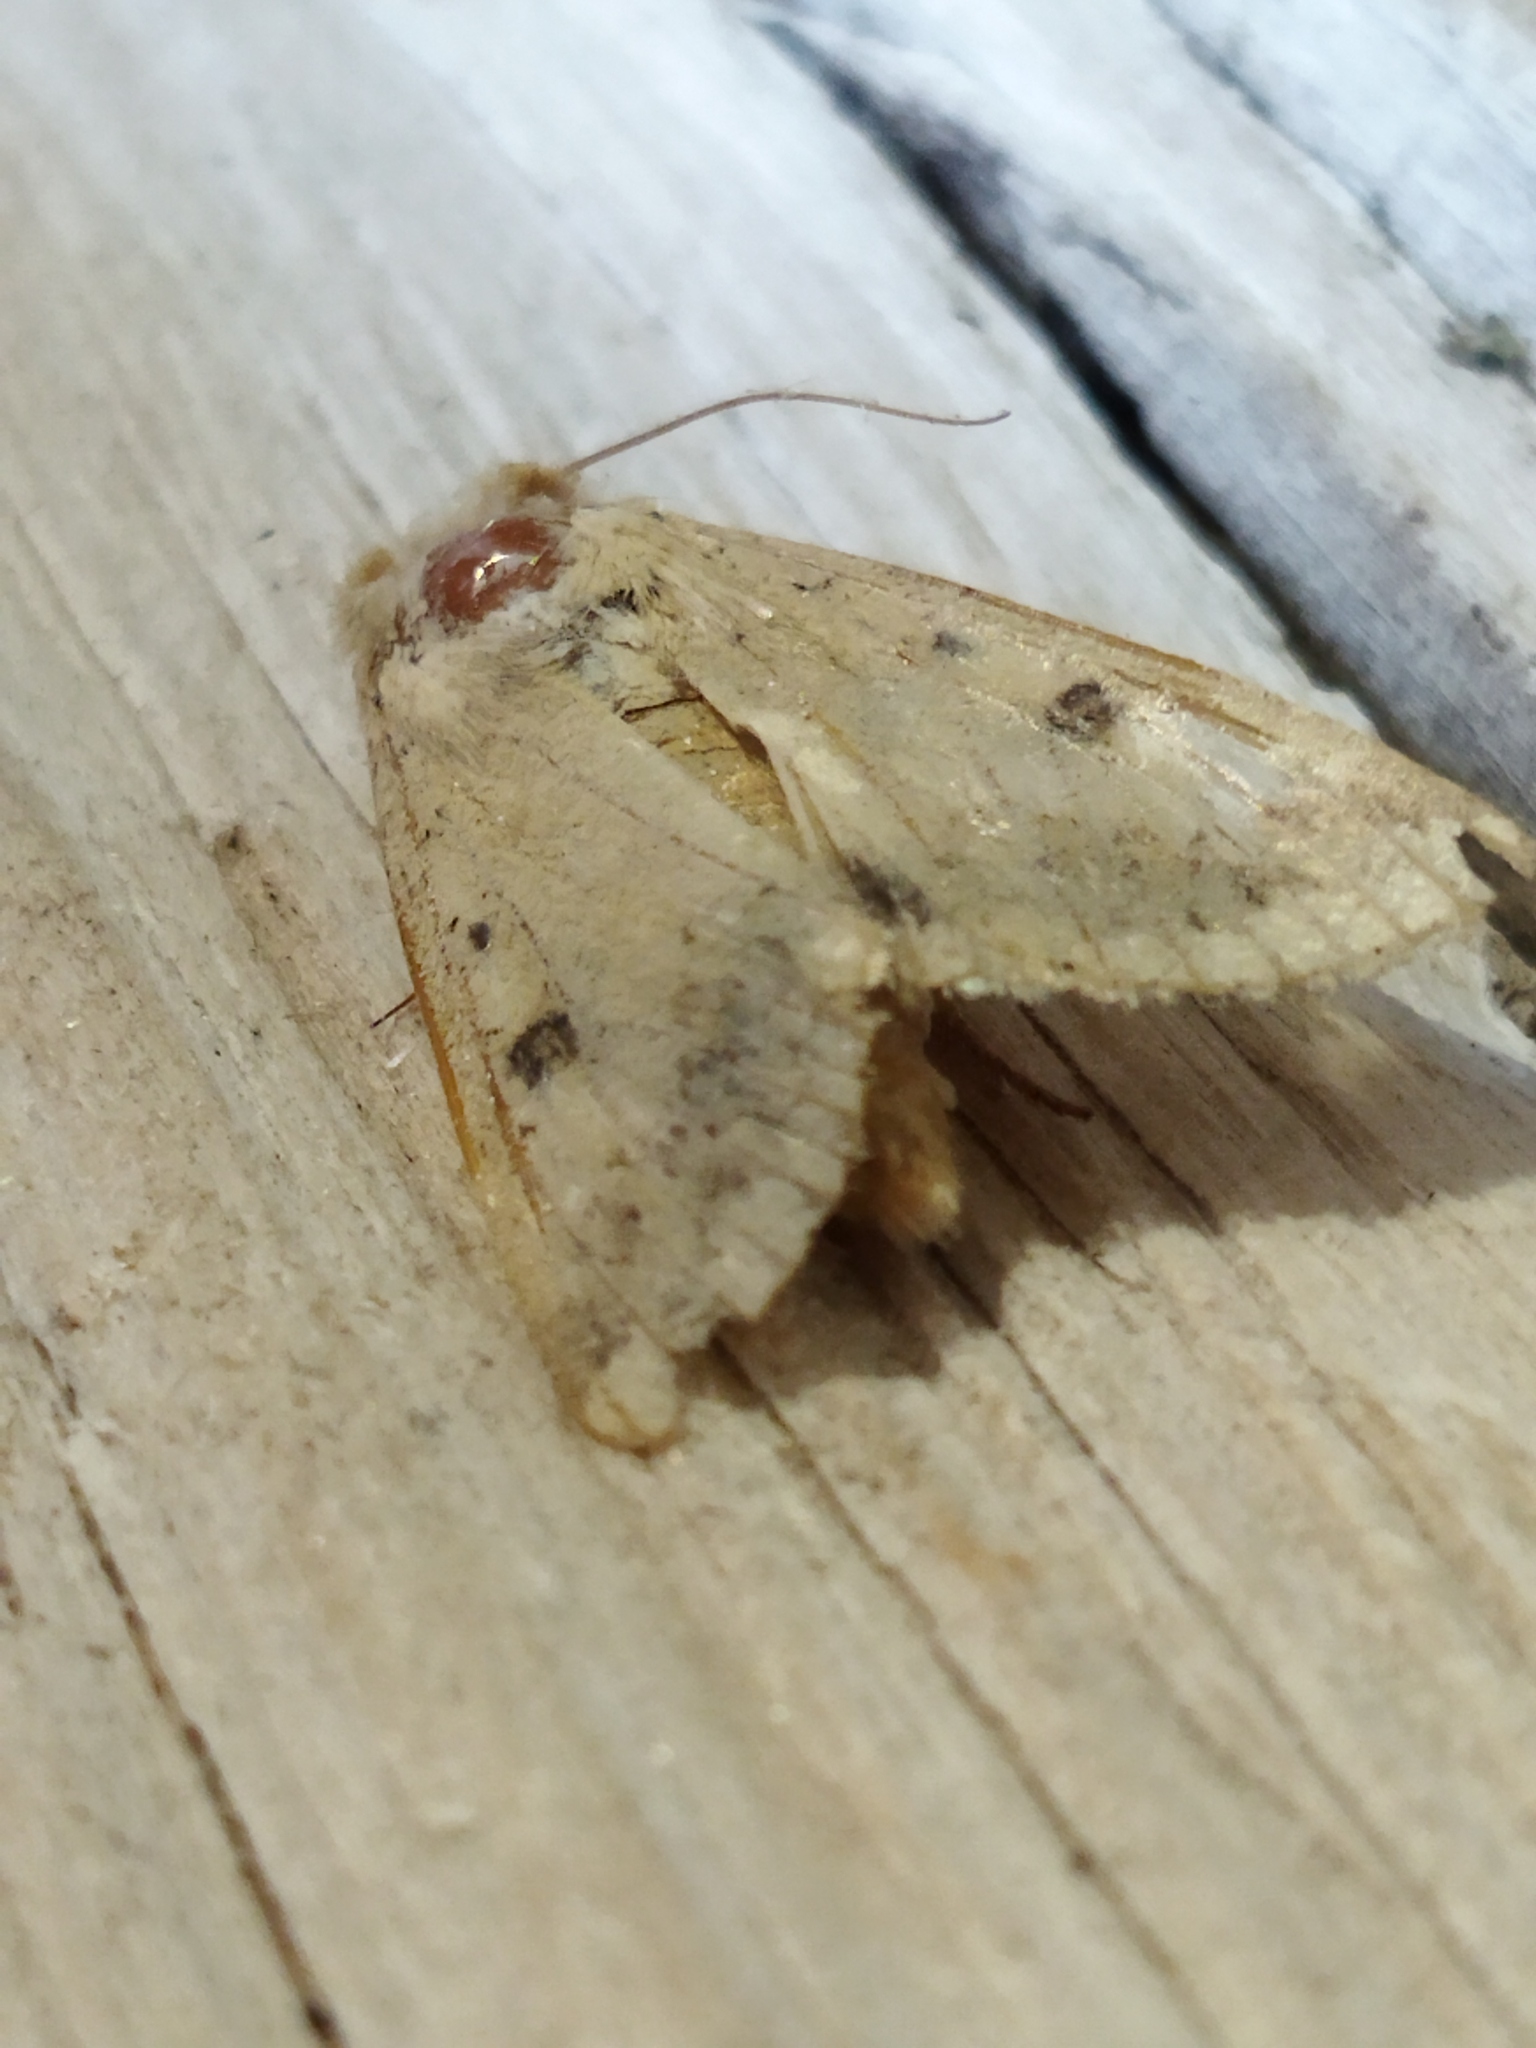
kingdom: Animalia
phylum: Arthropoda
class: Insecta
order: Lepidoptera
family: Noctuidae
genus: Helicoverpa
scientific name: Helicoverpa armigera
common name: Cotton bollworm
